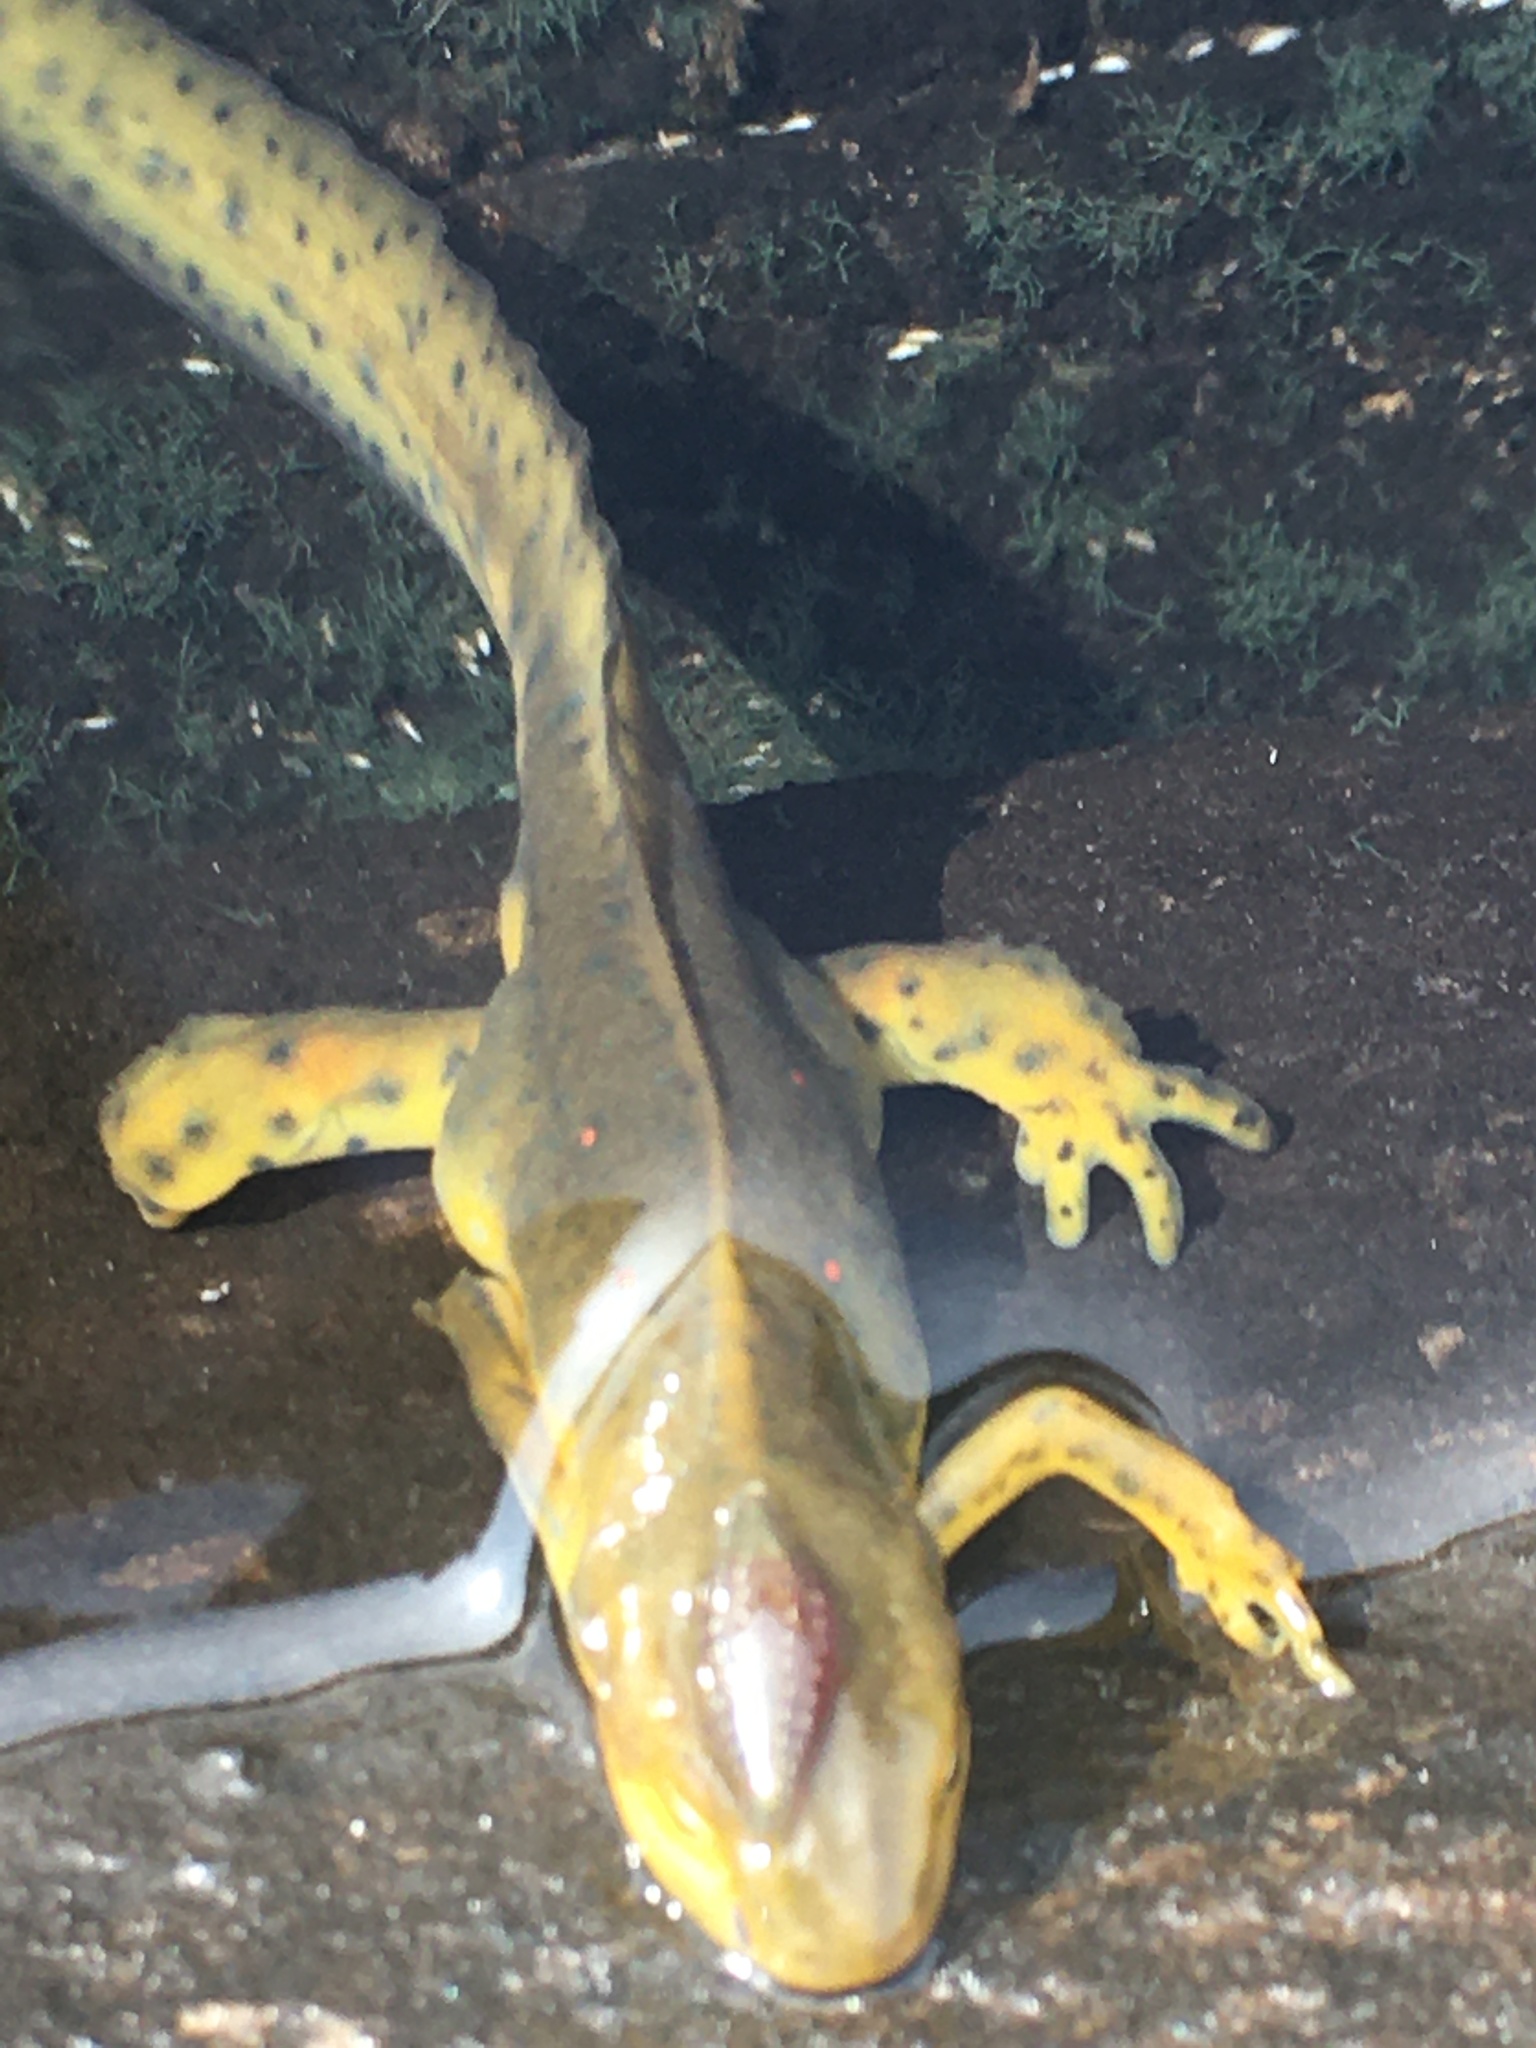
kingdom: Animalia
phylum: Chordata
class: Amphibia
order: Caudata
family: Salamandridae
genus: Notophthalmus
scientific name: Notophthalmus viridescens
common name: Eastern newt
